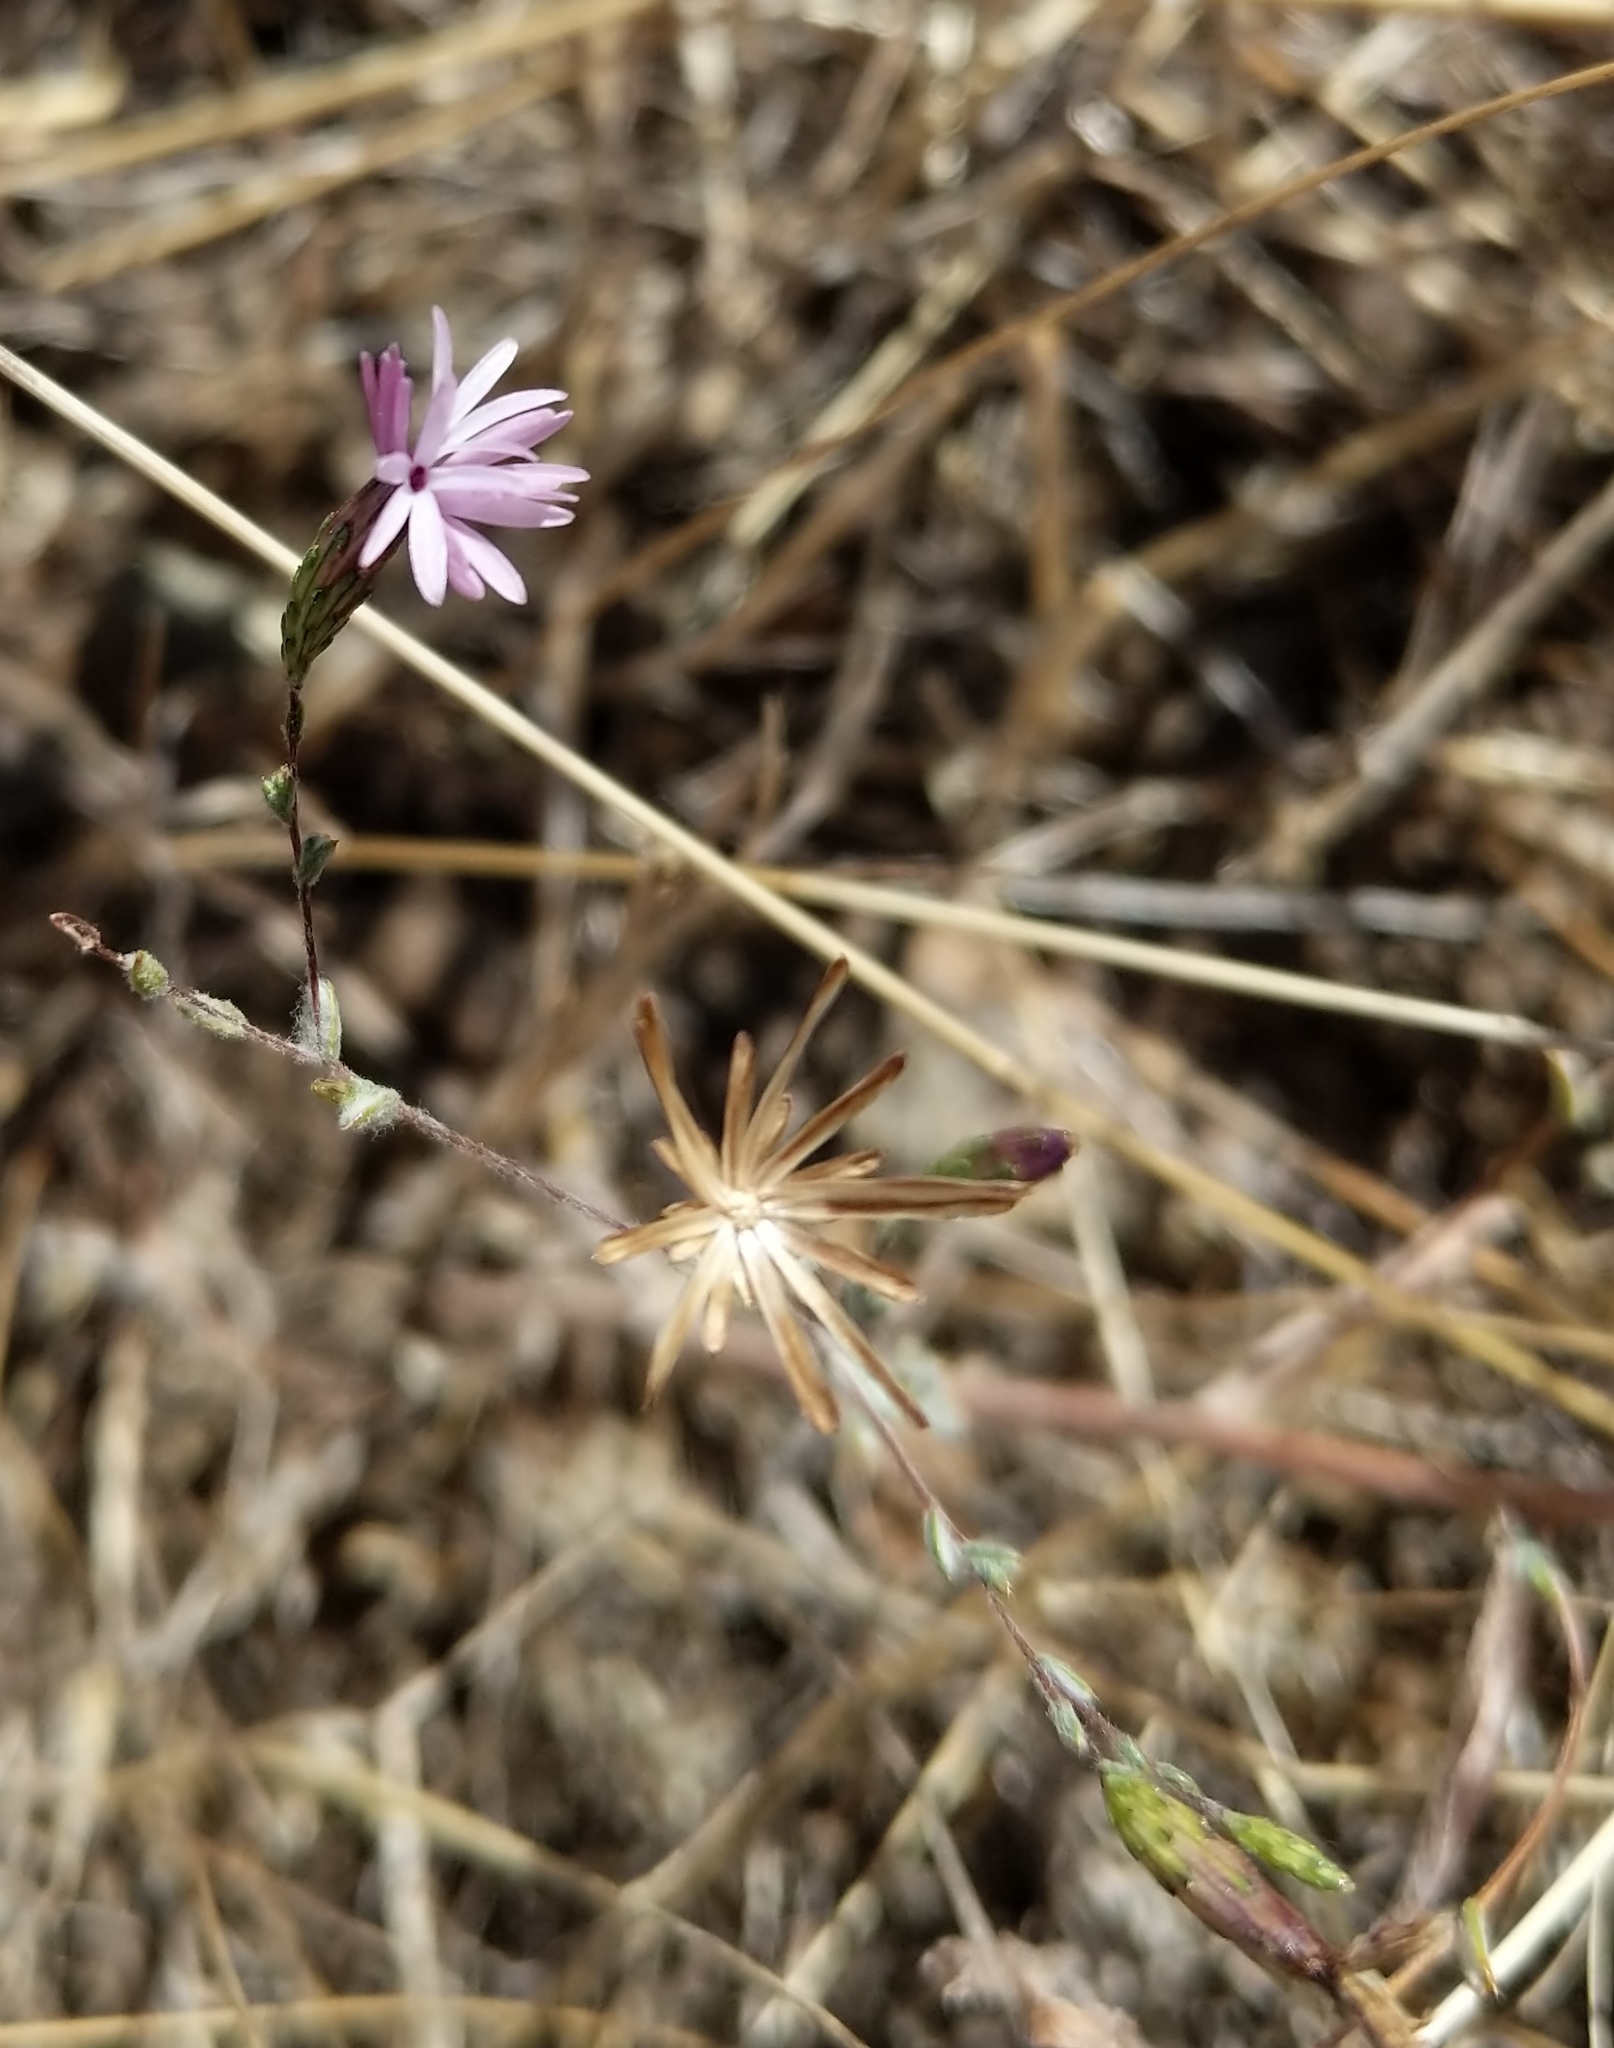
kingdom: Plantae
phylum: Tracheophyta
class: Magnoliopsida
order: Asterales
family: Asteraceae
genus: Lessingia
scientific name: Lessingia micradenia
